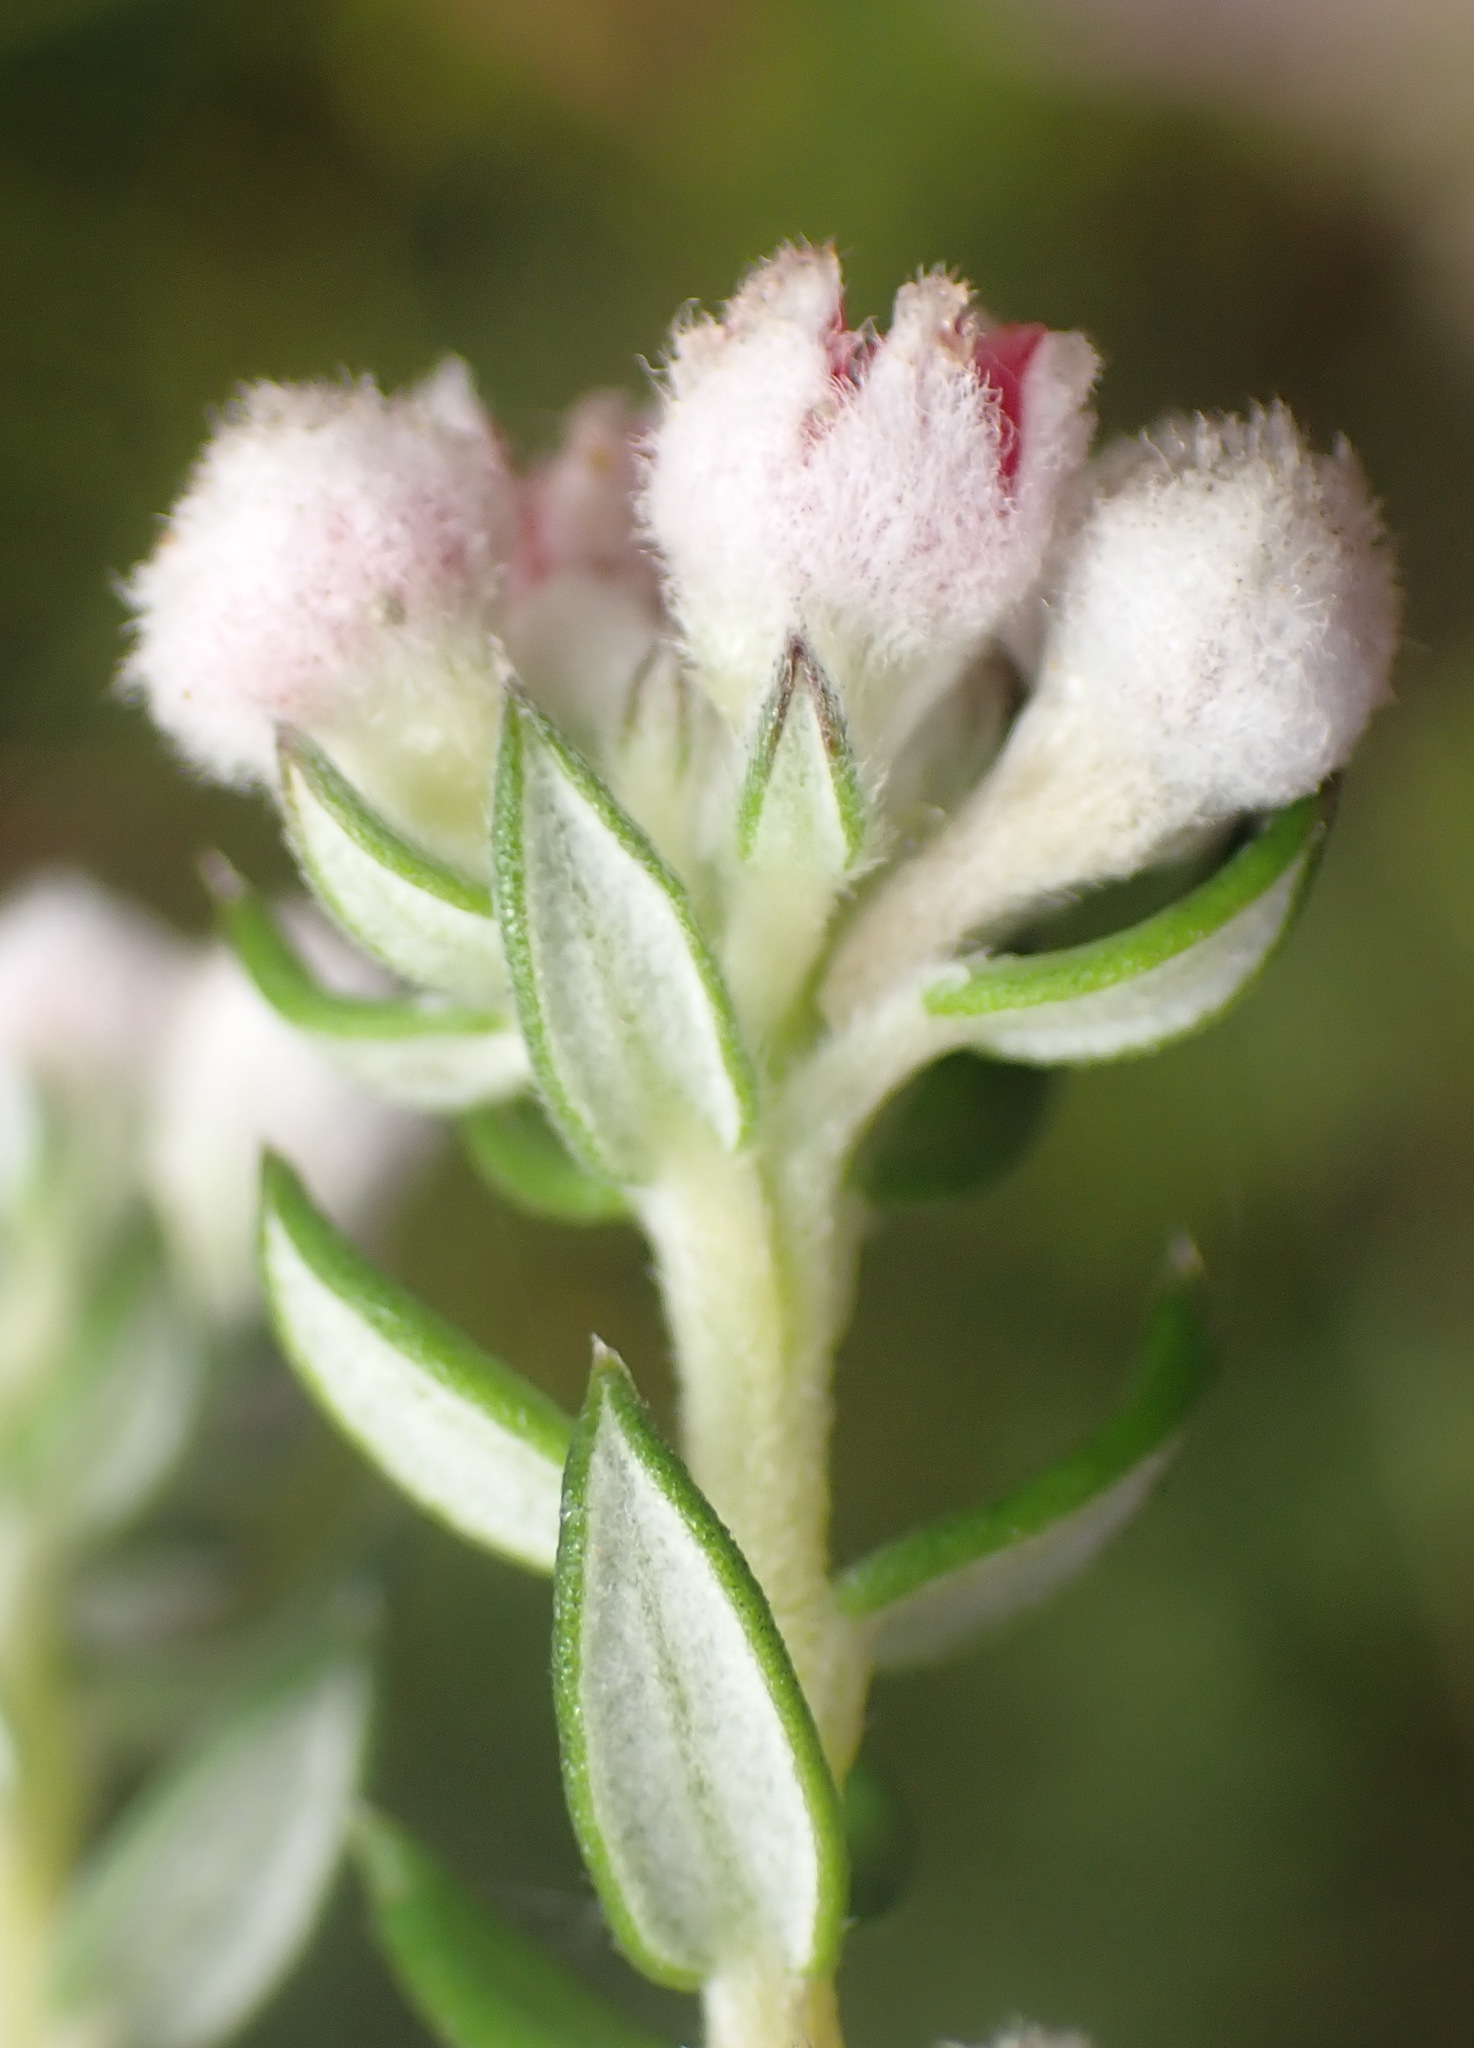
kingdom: Plantae
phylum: Tracheophyta
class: Magnoliopsida
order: Rosales
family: Rhamnaceae
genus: Phylica
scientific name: Phylica purpurea
